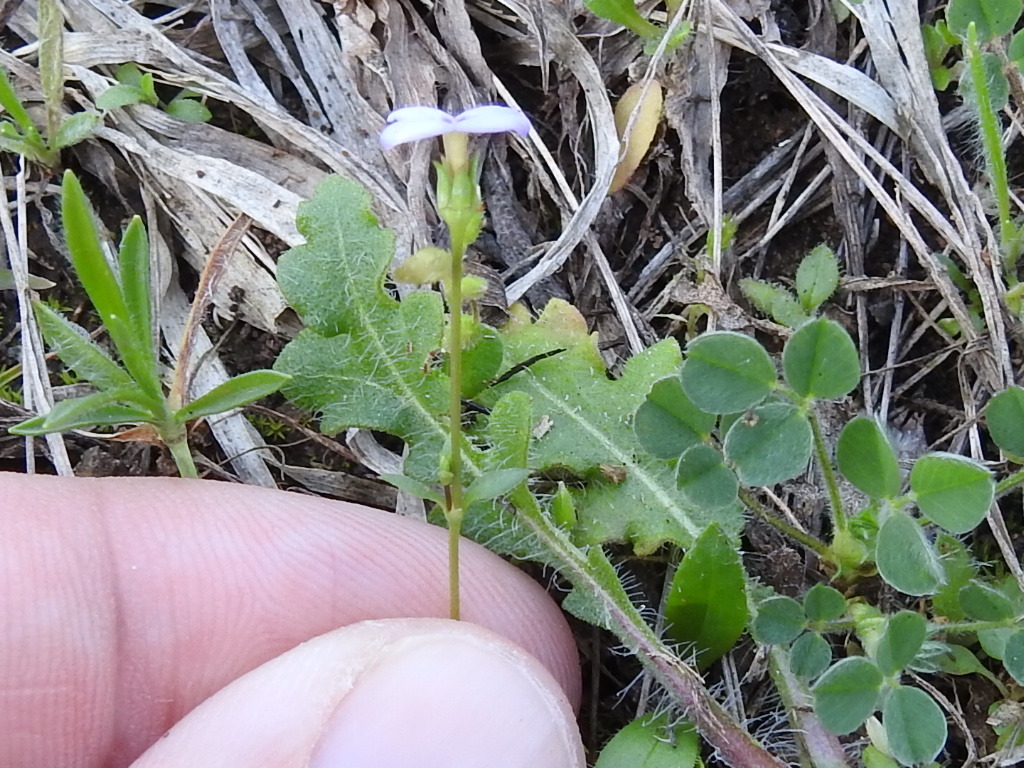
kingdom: Plantae
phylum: Tracheophyta
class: Magnoliopsida
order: Gentianales
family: Rubiaceae
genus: Houstonia
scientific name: Houstonia pusilla
